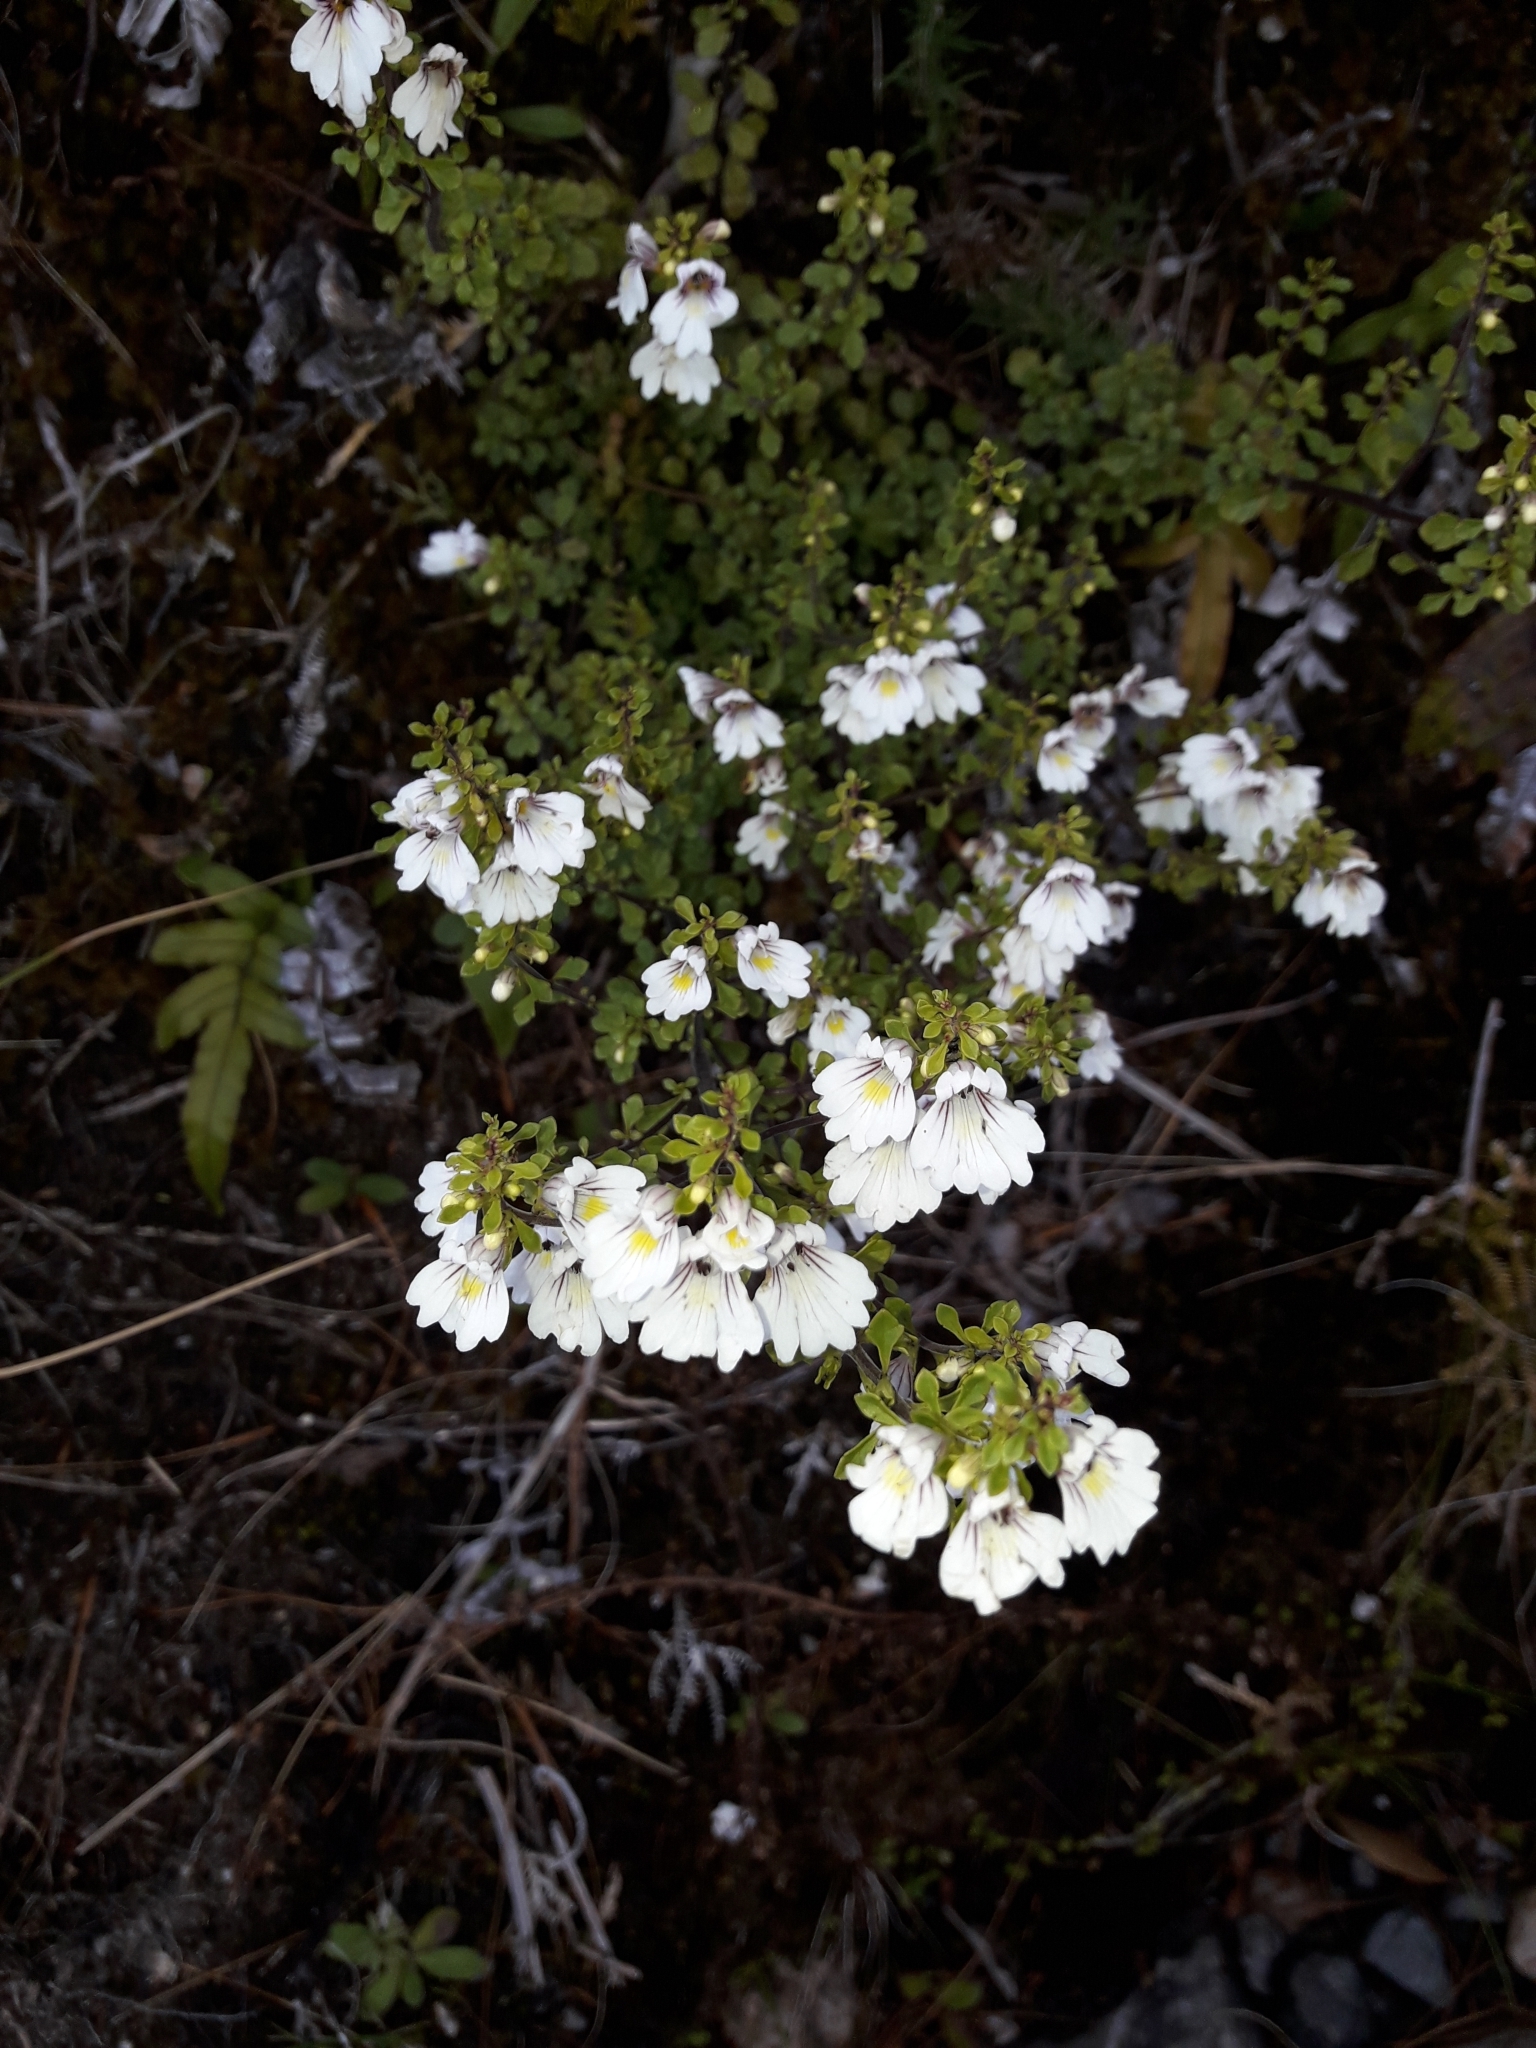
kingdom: Plantae
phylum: Tracheophyta
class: Magnoliopsida
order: Lamiales
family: Orobanchaceae
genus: Euphrasia
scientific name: Euphrasia cuneata
